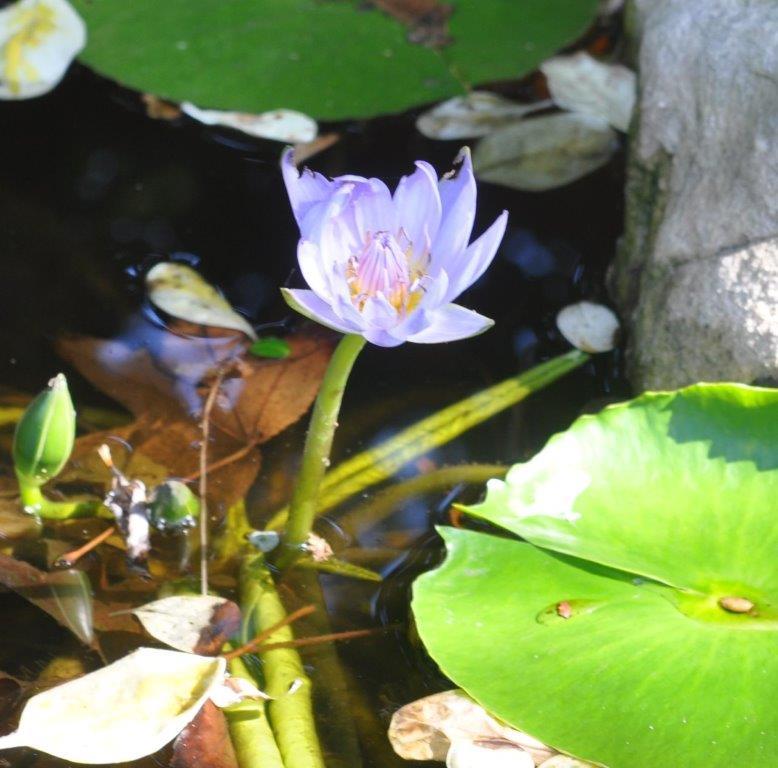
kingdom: Plantae
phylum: Tracheophyta
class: Magnoliopsida
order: Nymphaeales
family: Nymphaeaceae
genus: Nymphaea
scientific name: Nymphaea nouchali
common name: Blue lotus
